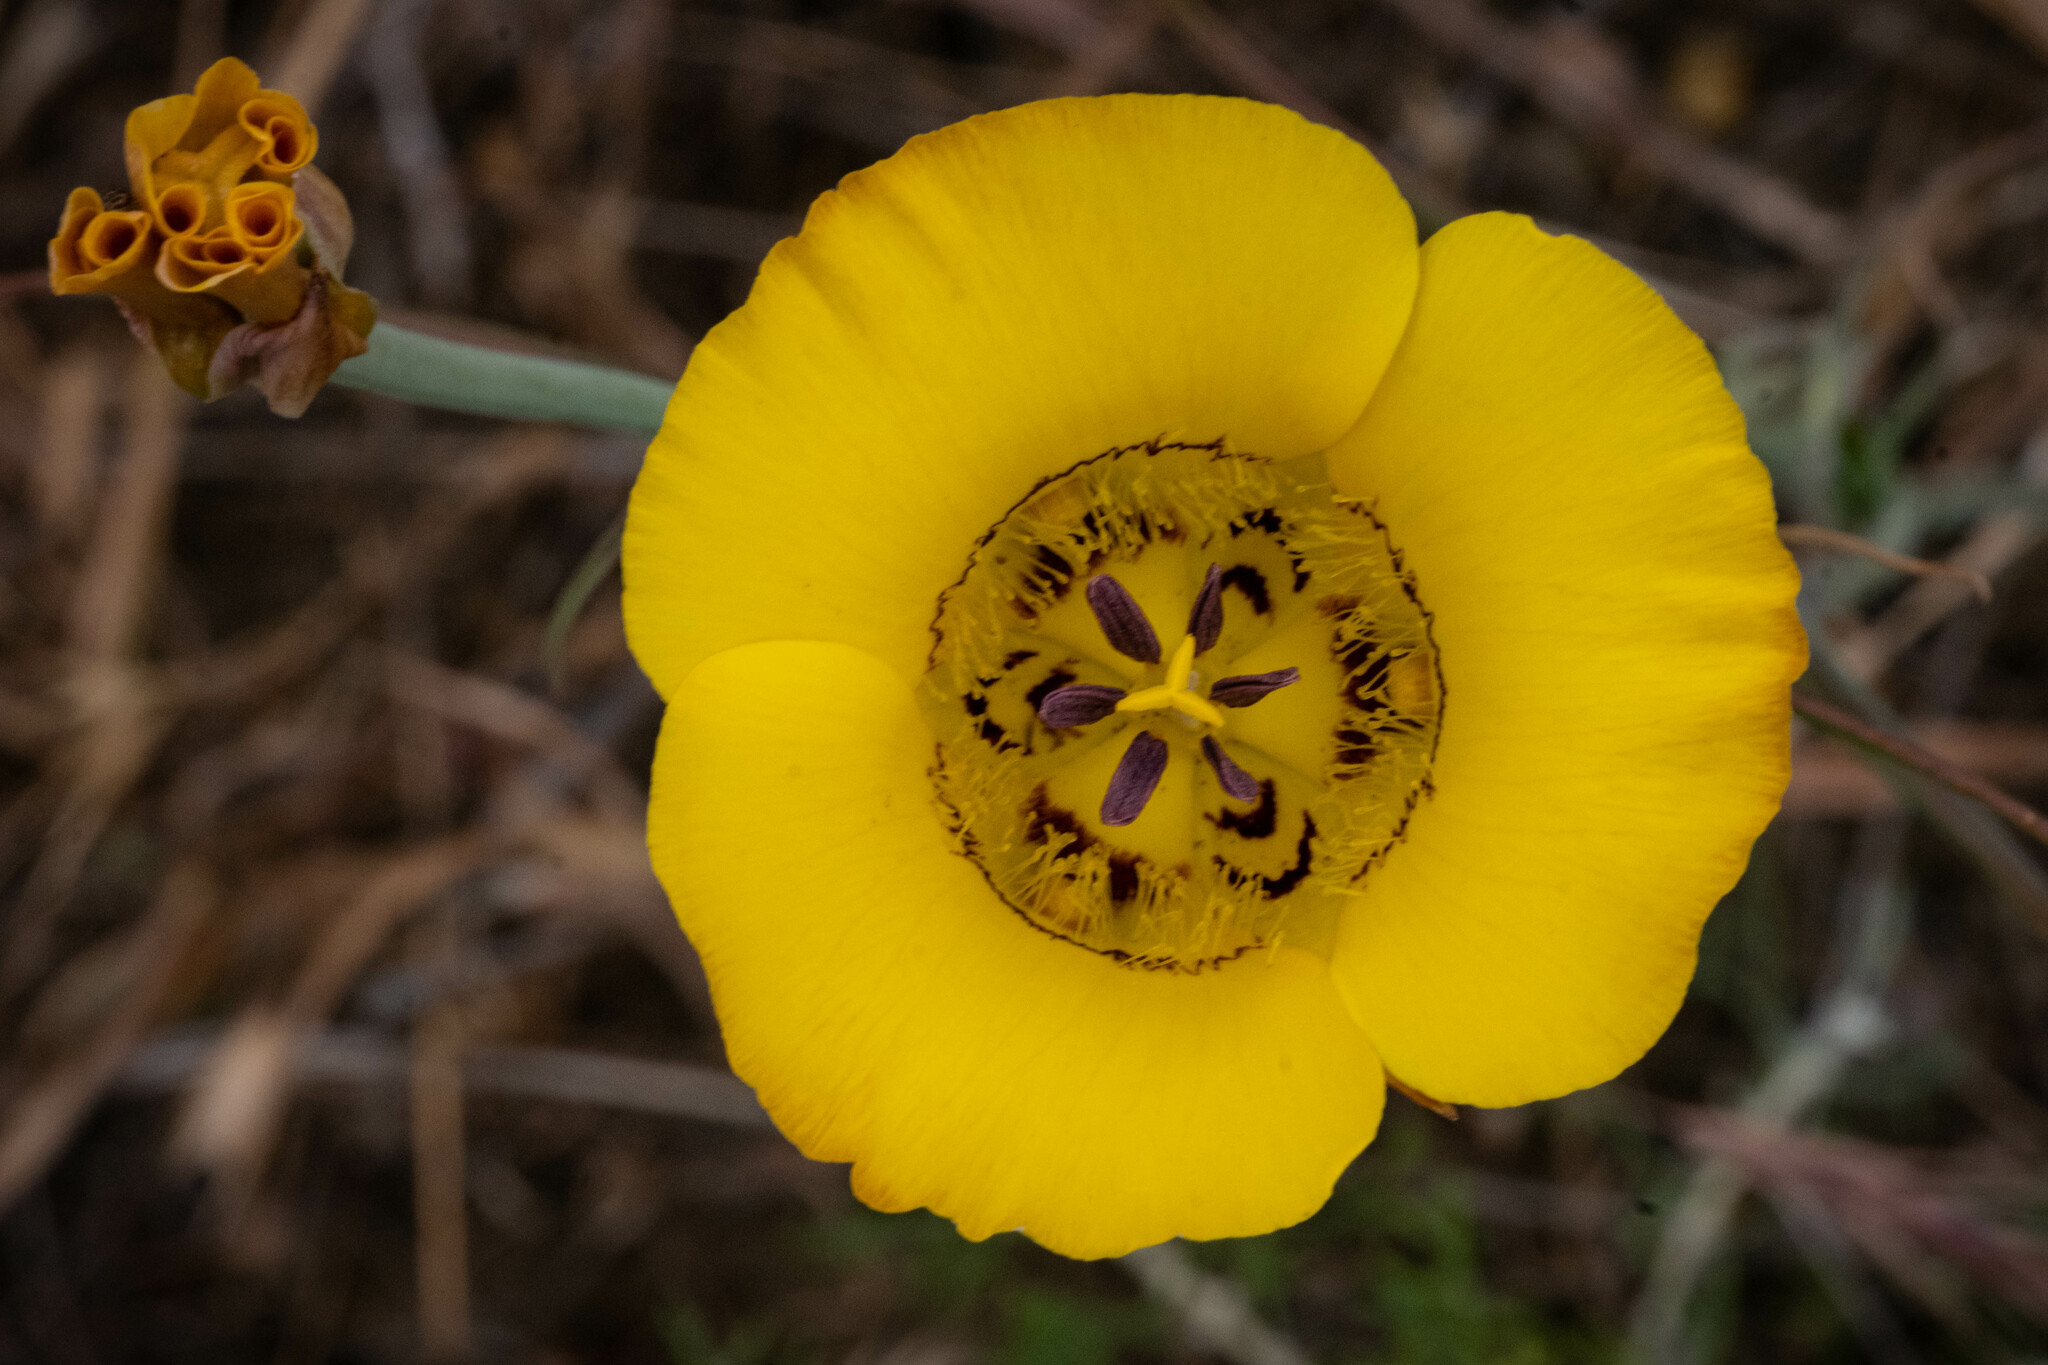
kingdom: Plantae
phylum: Tracheophyta
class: Liliopsida
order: Liliales
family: Liliaceae
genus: Calochortus
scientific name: Calochortus clavatus
